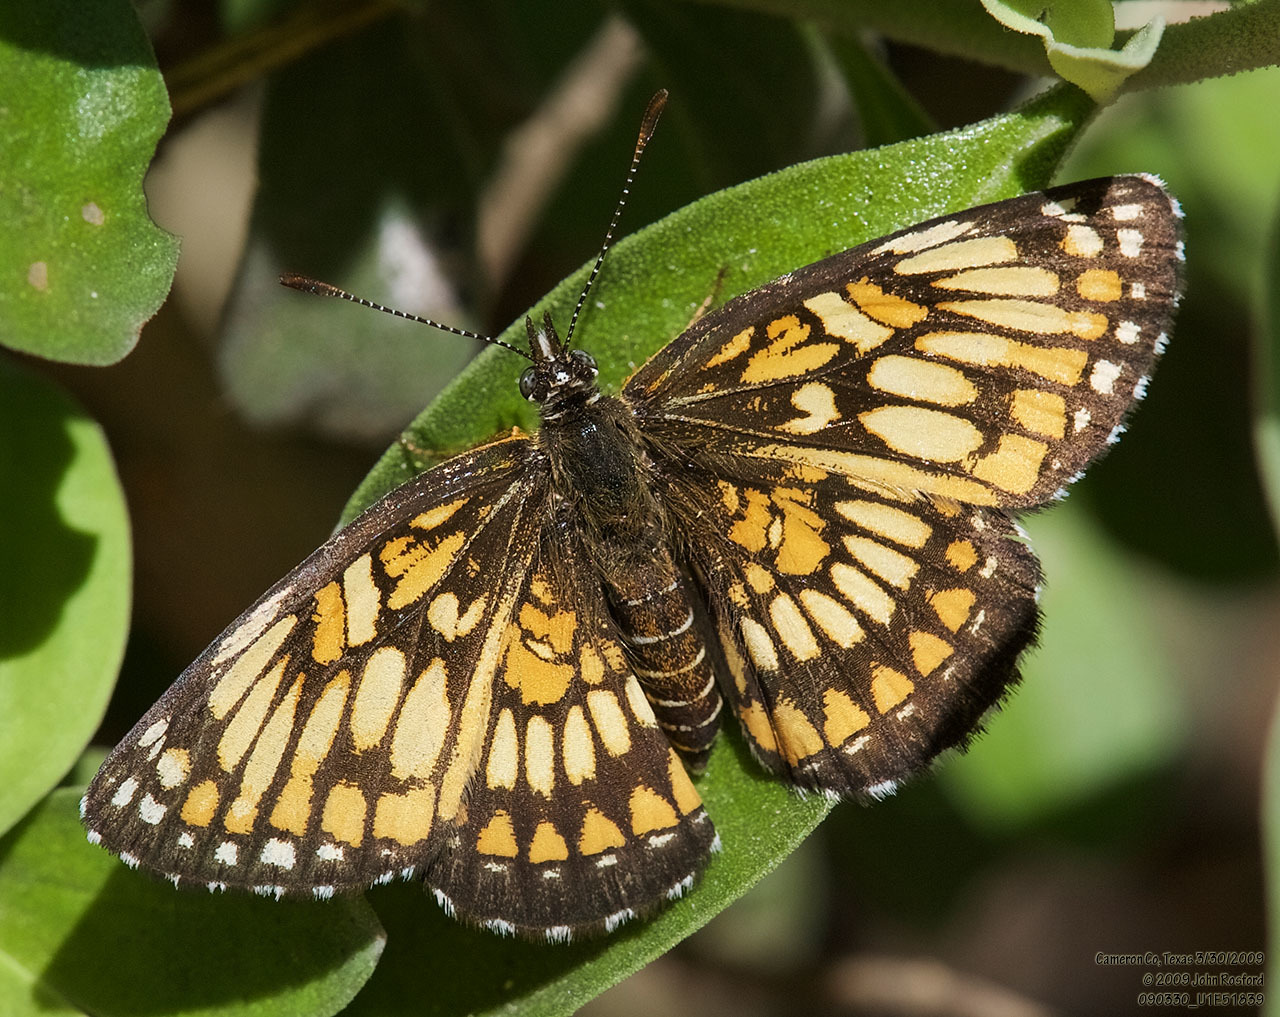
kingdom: Animalia
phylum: Arthropoda
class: Insecta
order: Lepidoptera
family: Nymphalidae
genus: Thessalia
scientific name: Thessalia theona
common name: Nymphalid moth
